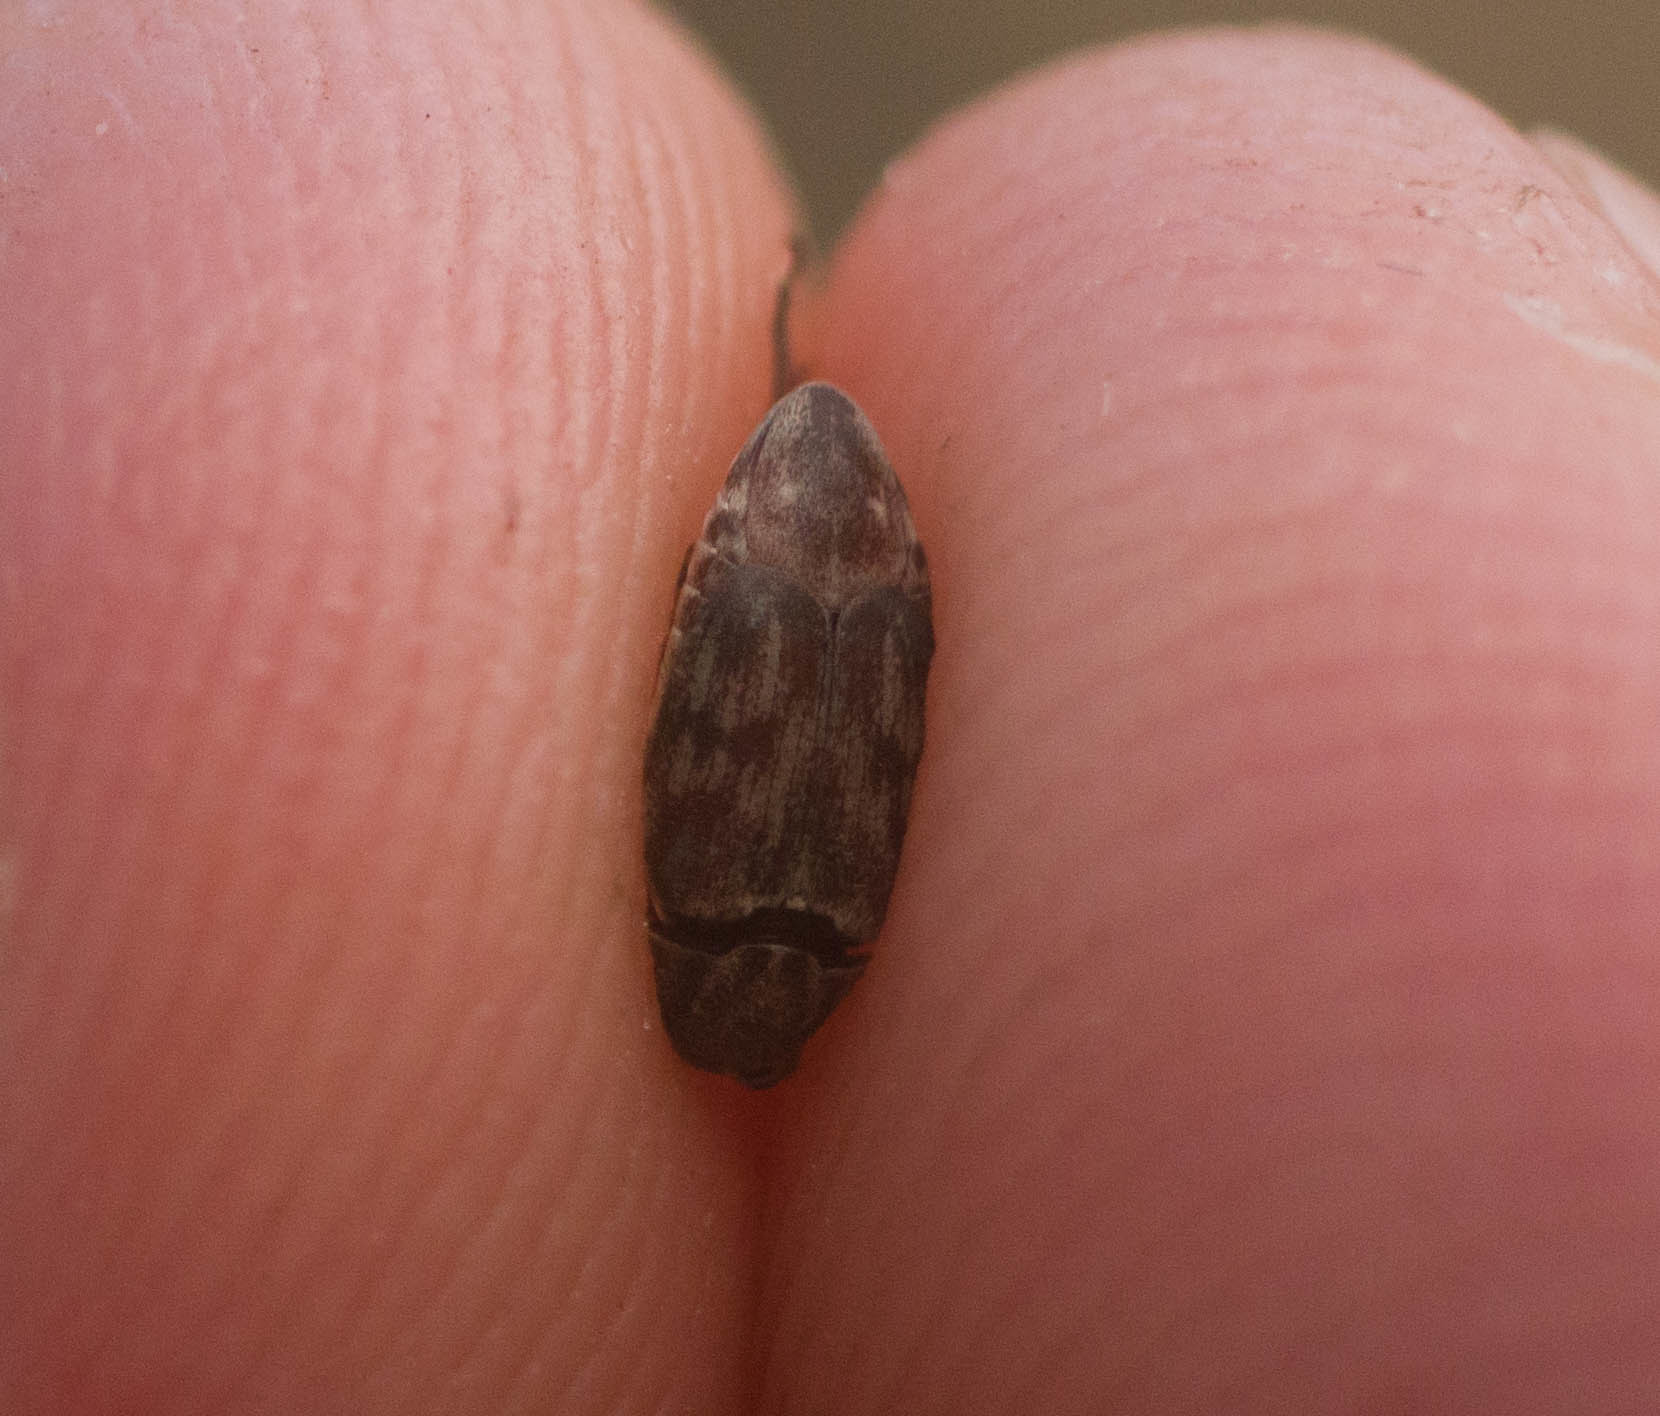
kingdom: Animalia
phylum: Arthropoda
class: Insecta
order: Coleoptera
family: Chrysomelidae
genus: Mimosestes
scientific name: Mimosestes nubigens
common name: Leaf beetle
